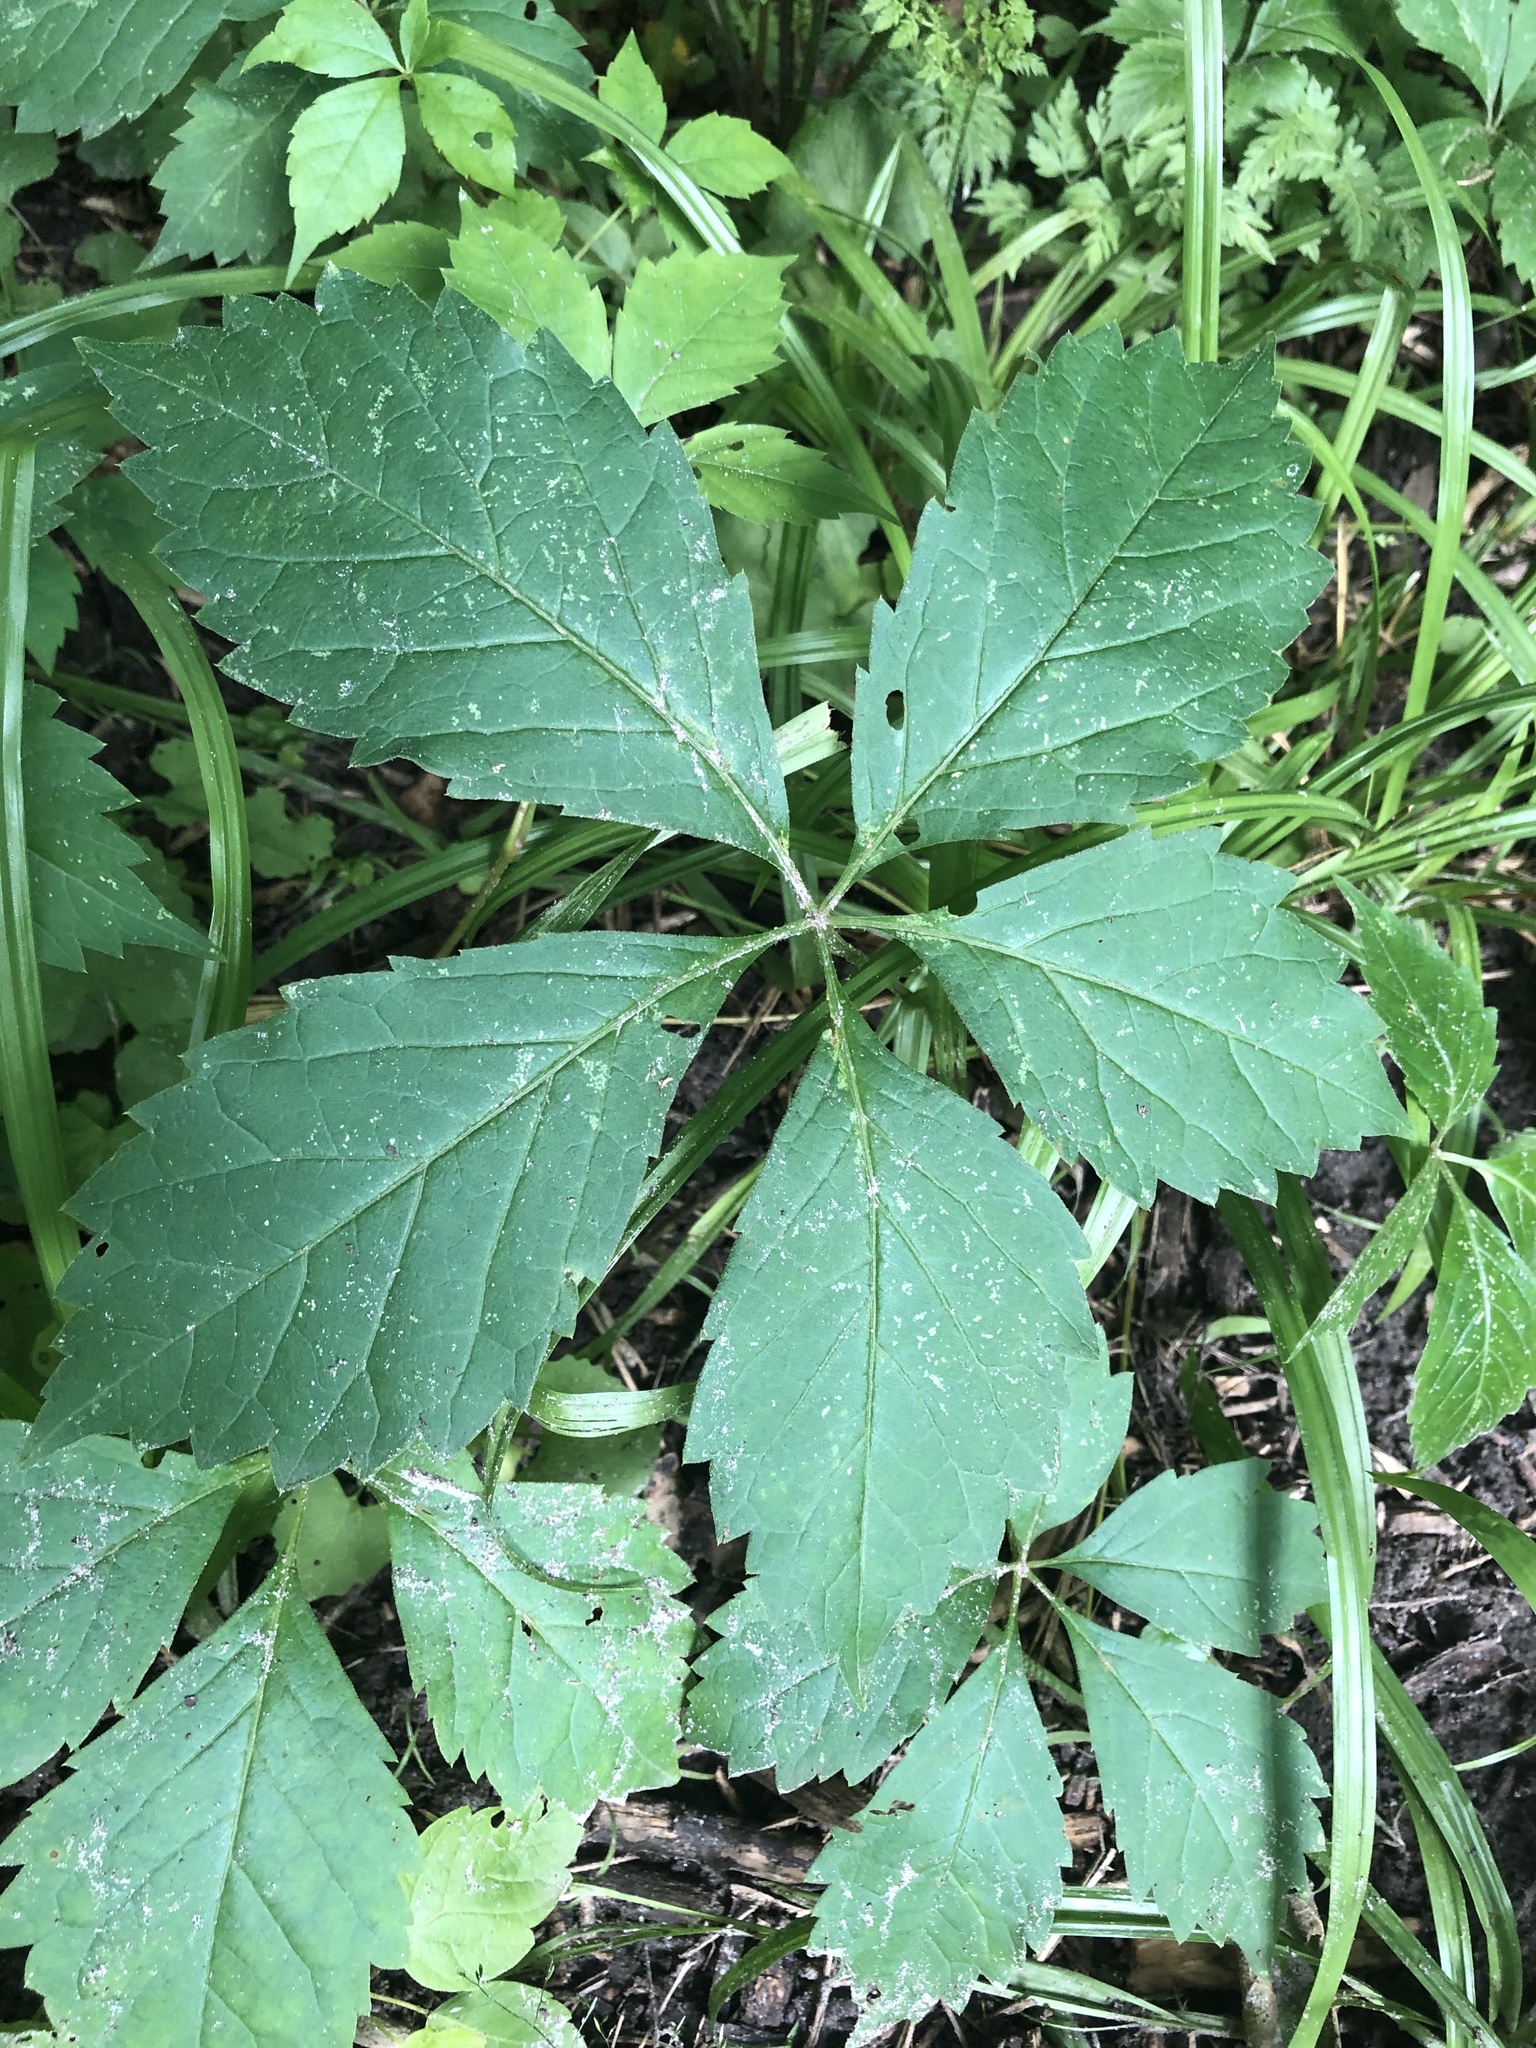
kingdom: Plantae
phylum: Tracheophyta
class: Magnoliopsida
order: Vitales
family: Vitaceae
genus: Parthenocissus
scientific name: Parthenocissus inserta
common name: False virginia-creeper
